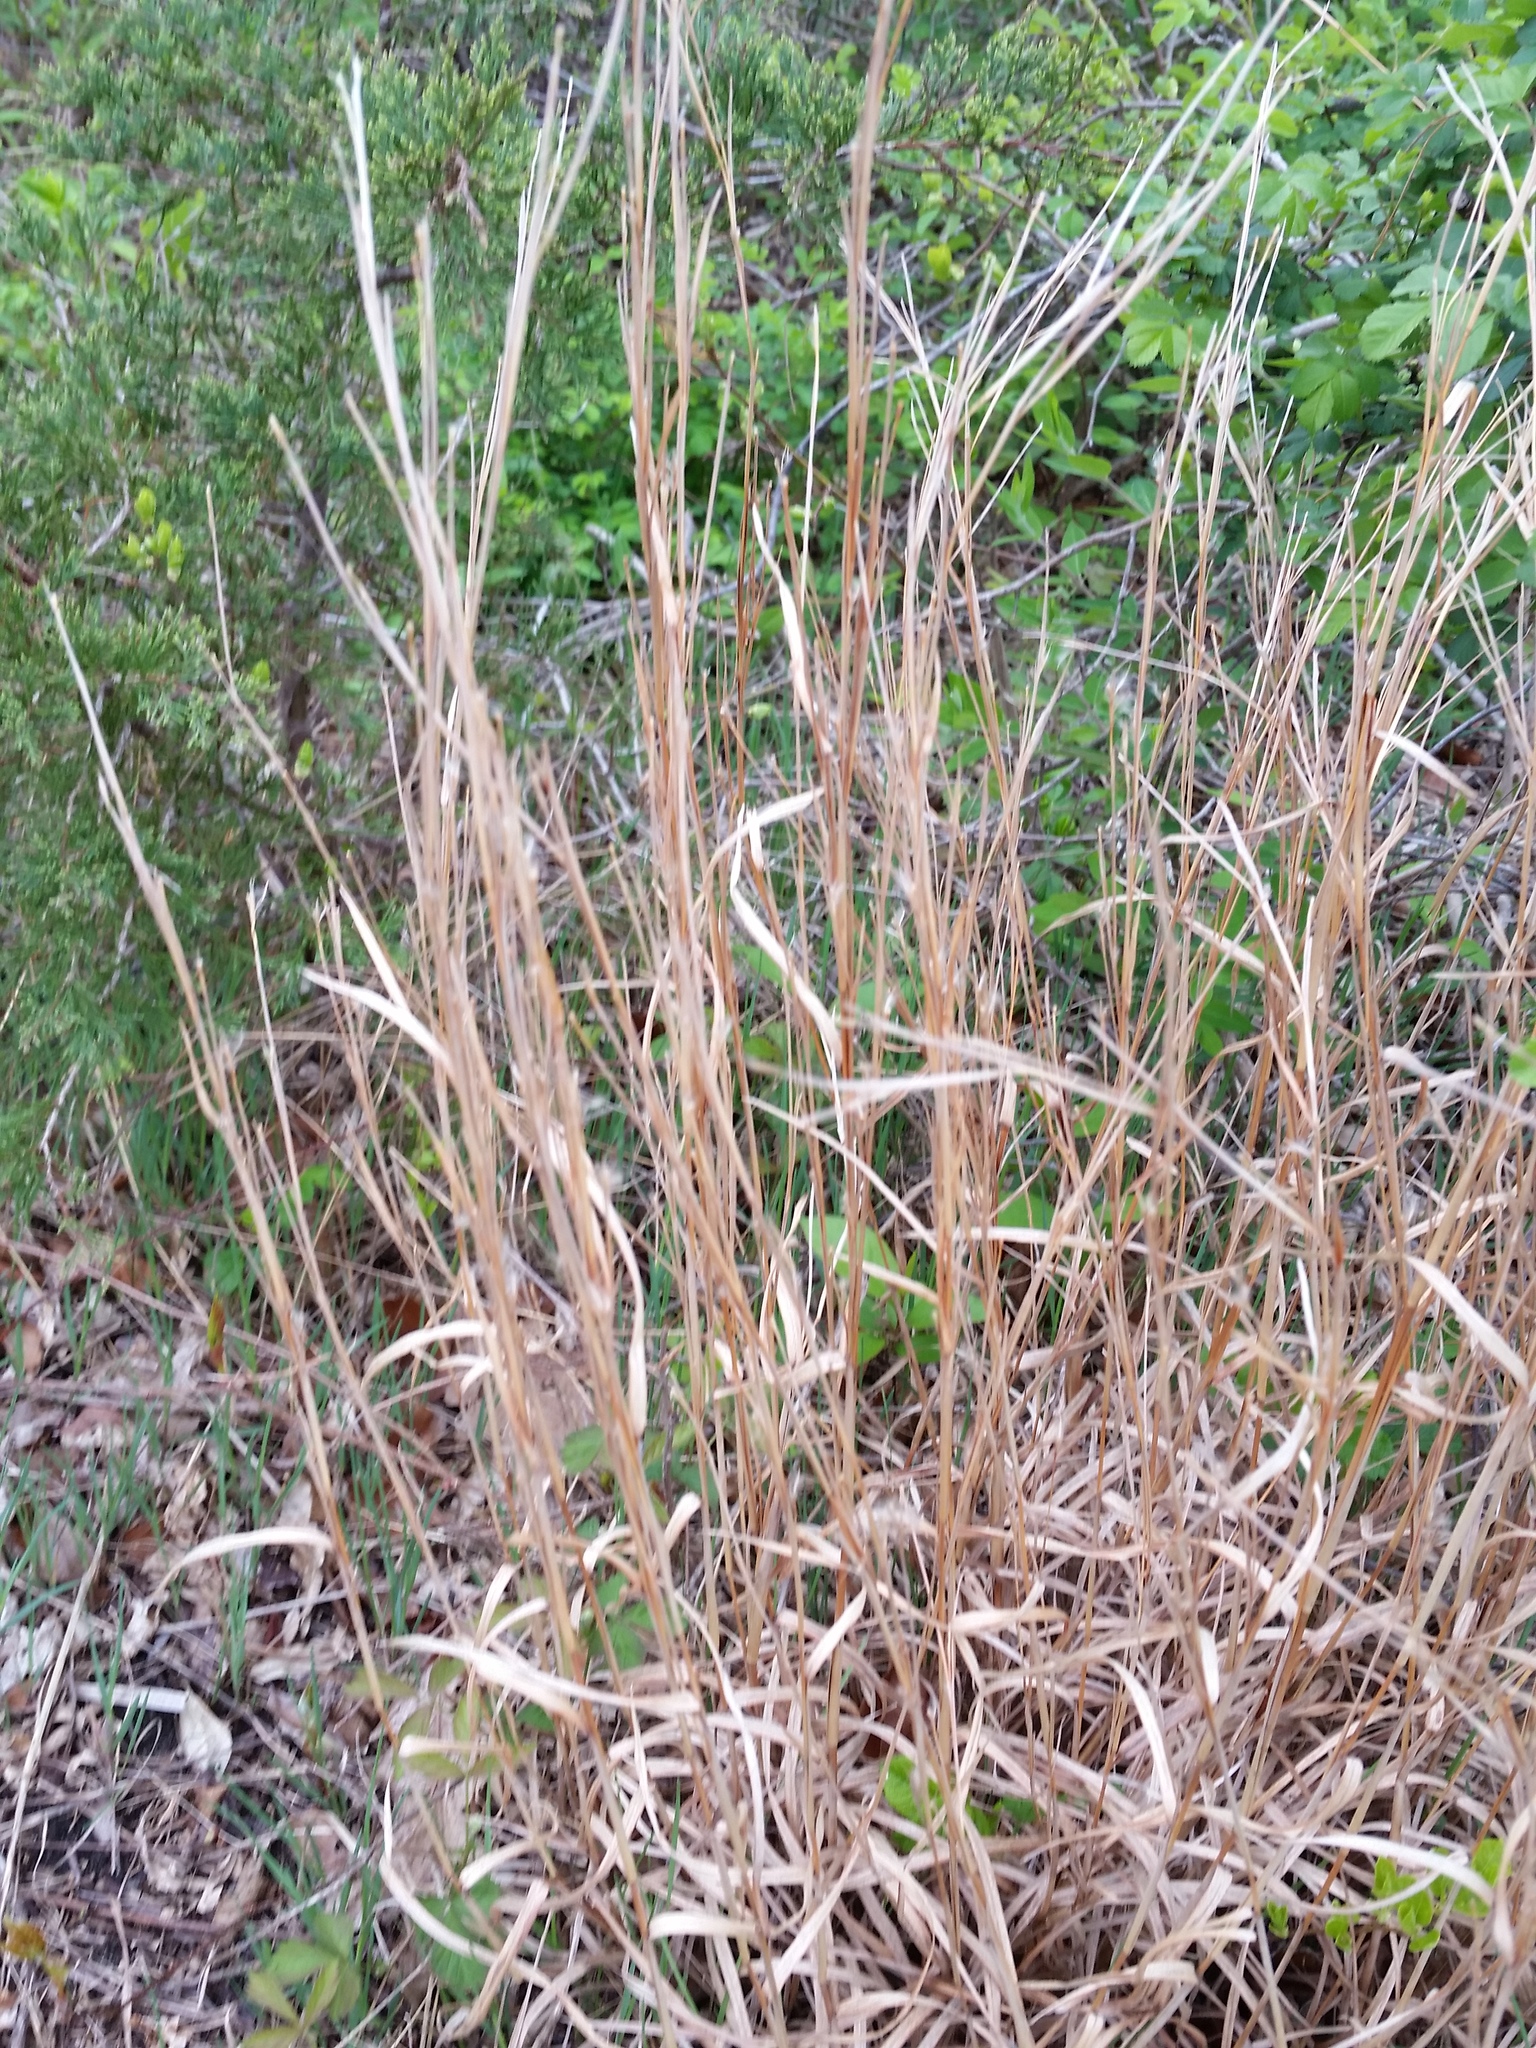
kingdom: Plantae
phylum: Tracheophyta
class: Liliopsida
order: Poales
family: Poaceae
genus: Andropogon
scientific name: Andropogon virginicus
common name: Broomsedge bluestem
